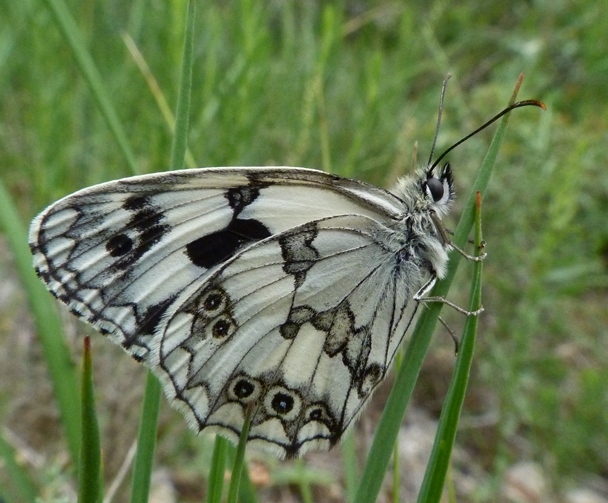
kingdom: Animalia
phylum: Arthropoda
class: Insecta
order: Lepidoptera
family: Nymphalidae
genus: Melanargia
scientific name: Melanargia lachesis
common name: Iberian marbled white
